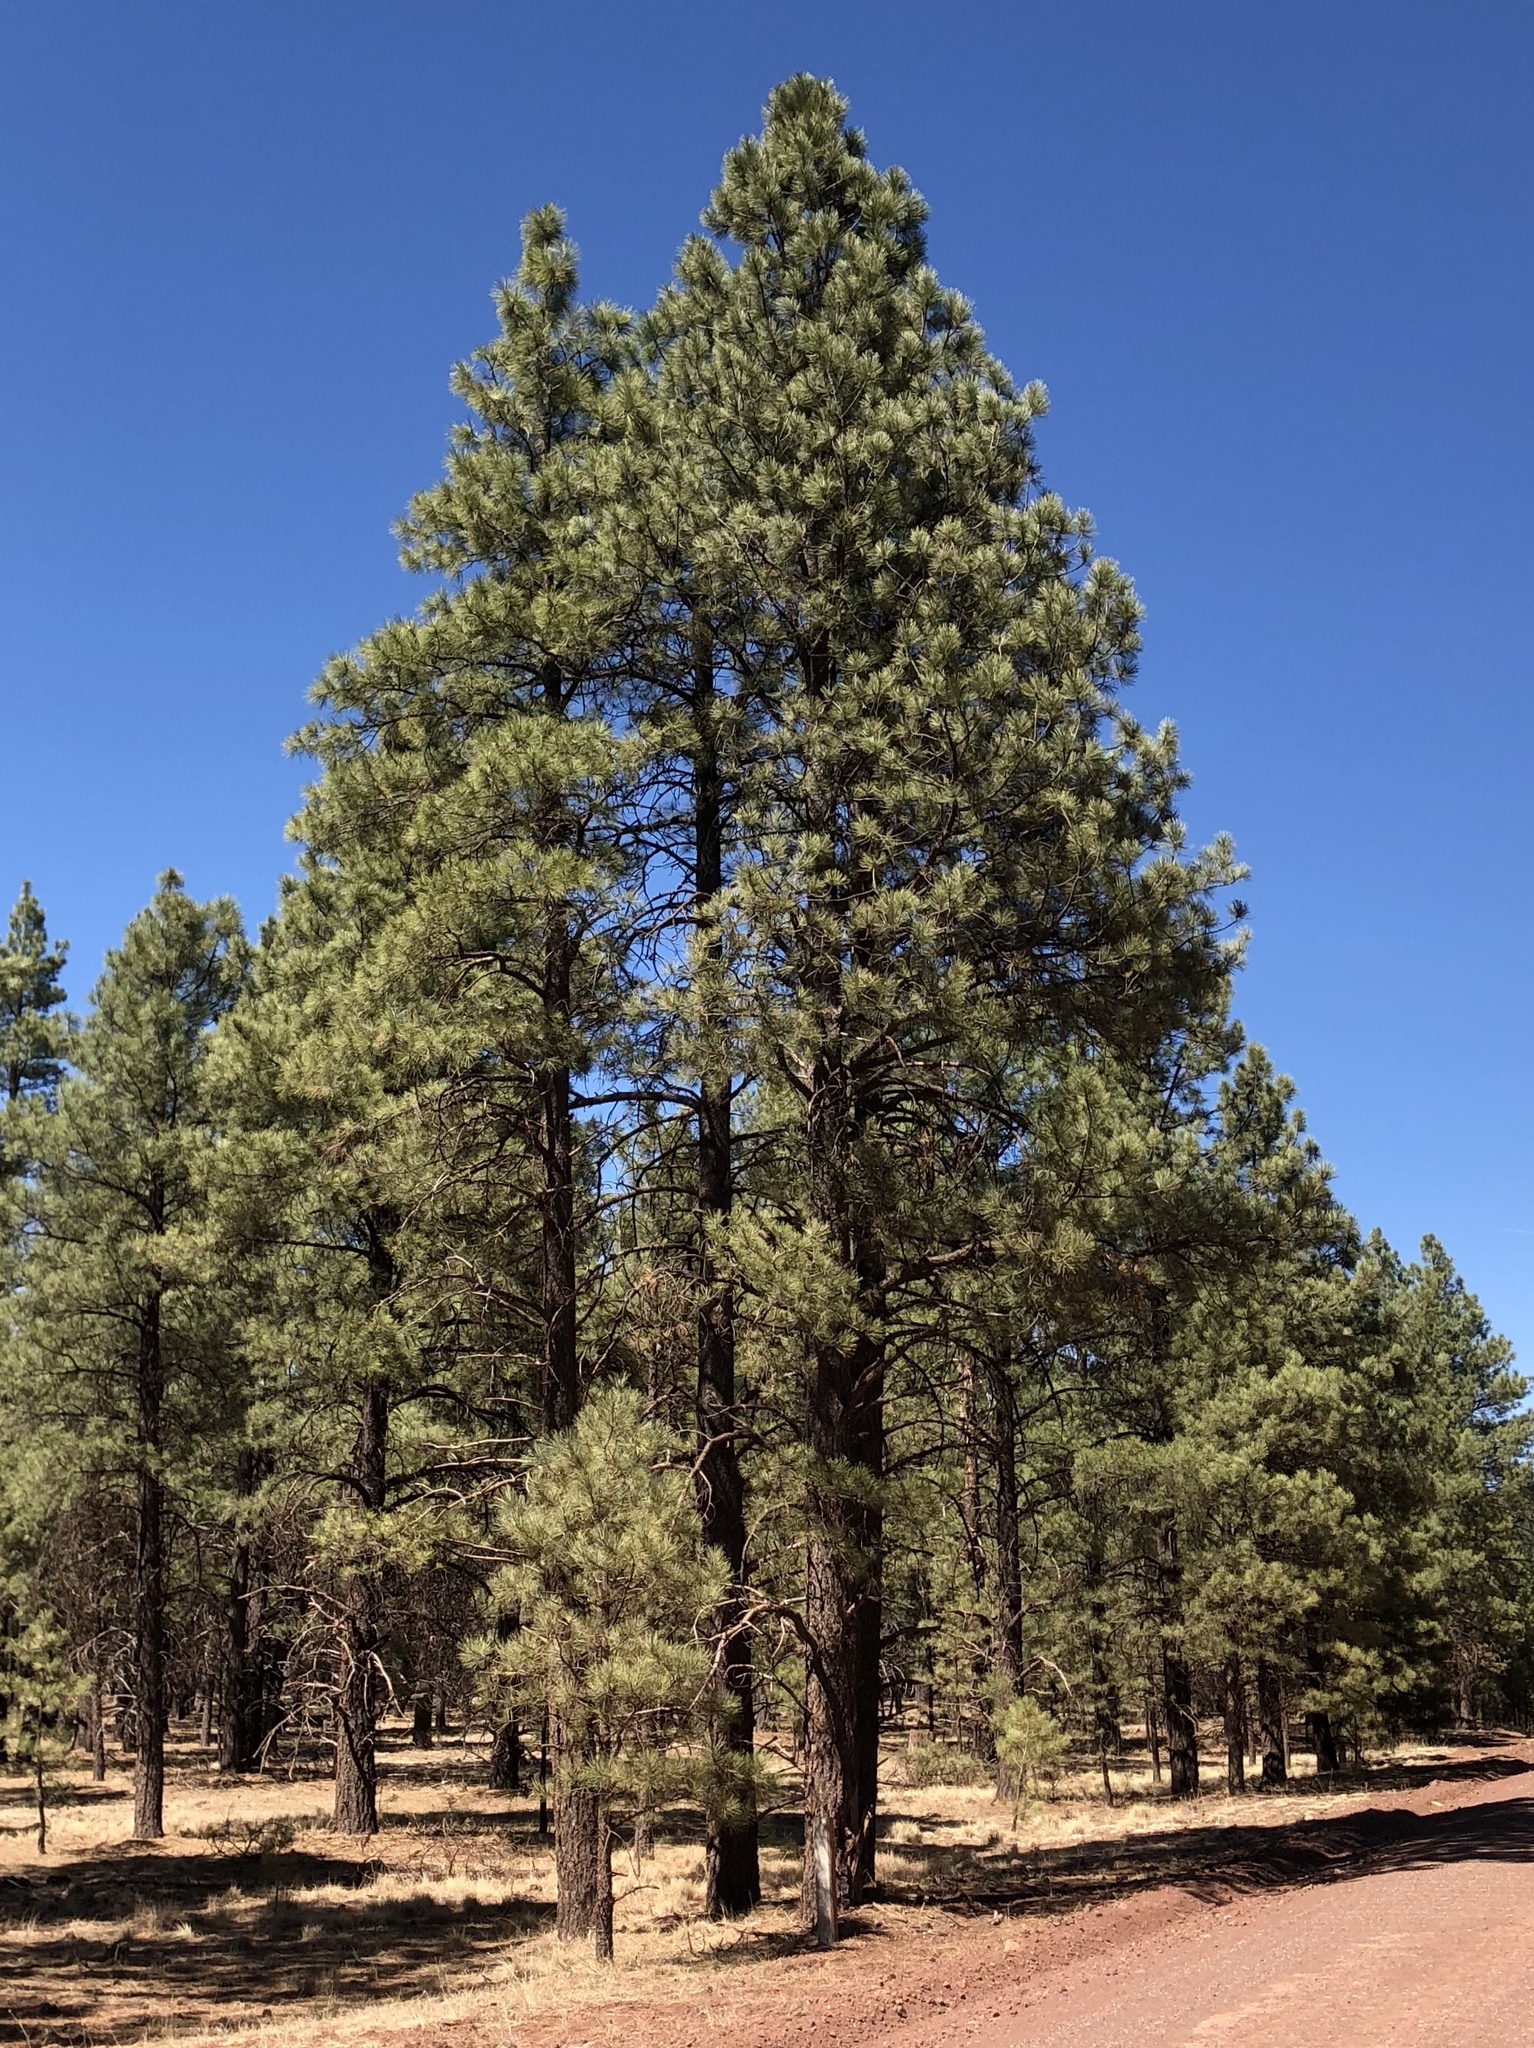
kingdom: Plantae
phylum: Tracheophyta
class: Pinopsida
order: Pinales
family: Pinaceae
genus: Pinus
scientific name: Pinus ponderosa
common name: Western yellow-pine
